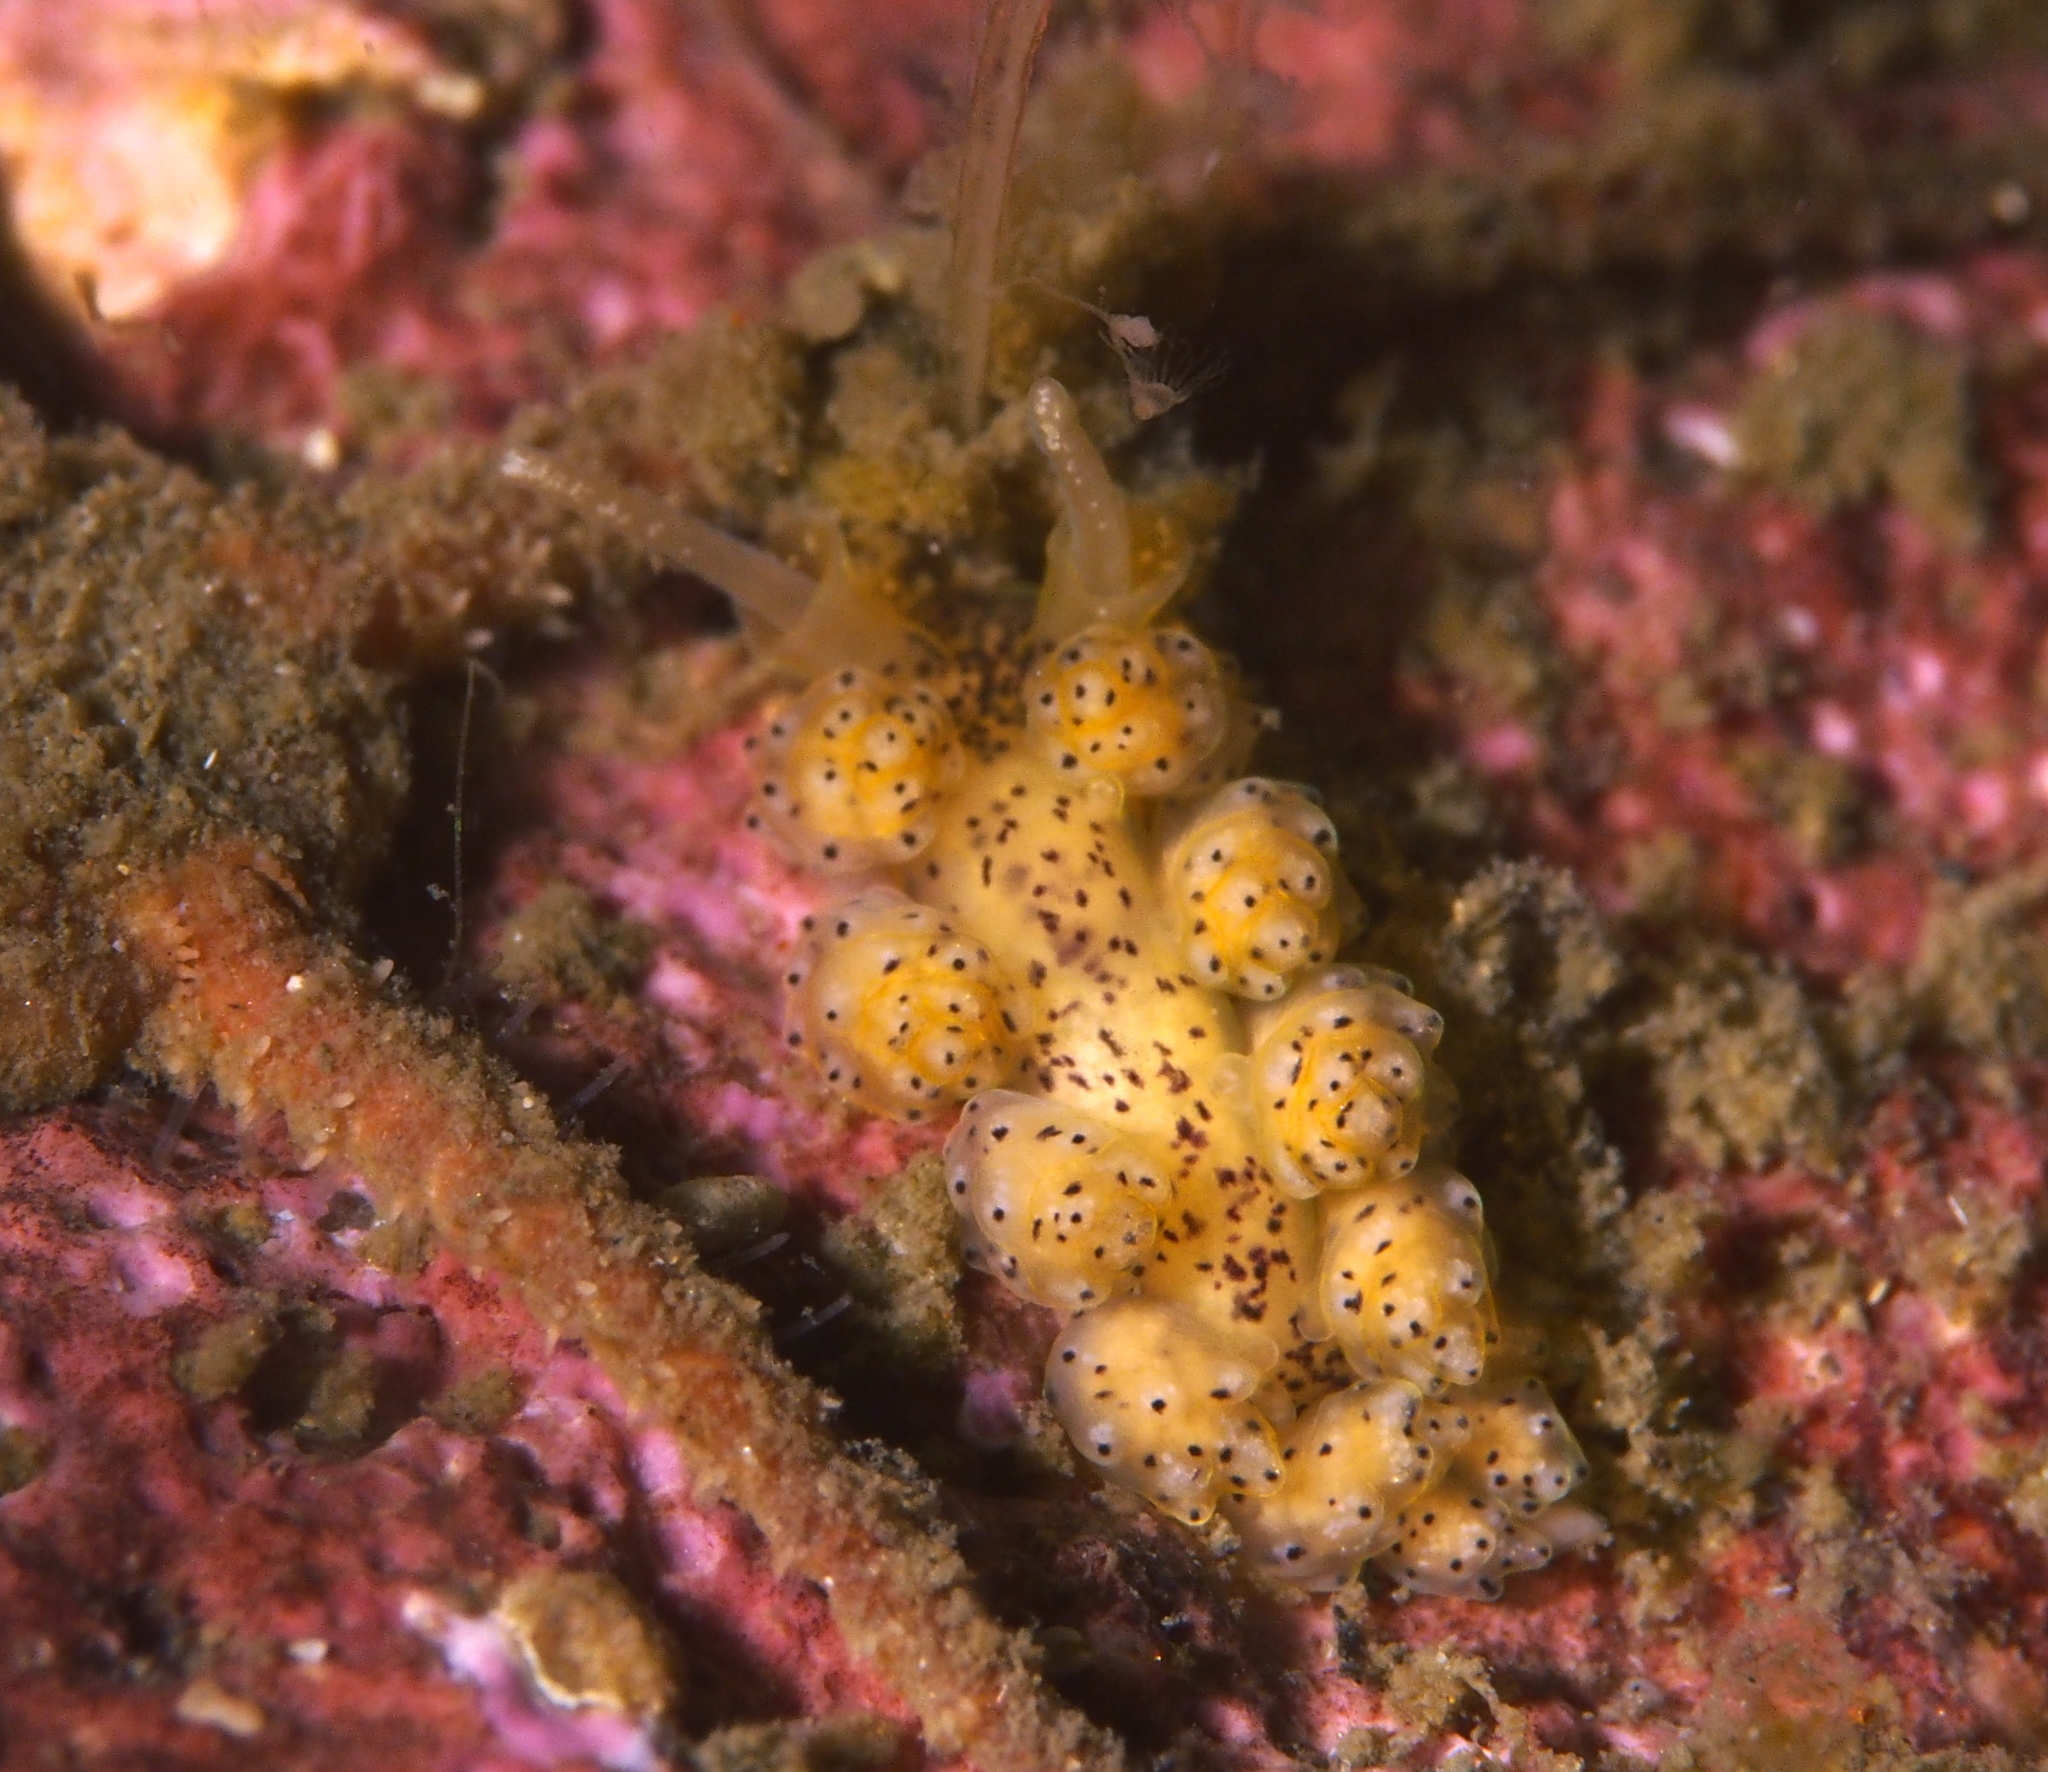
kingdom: Animalia
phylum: Mollusca
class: Gastropoda
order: Nudibranchia
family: Dotidae
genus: Doto
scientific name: Doto dunnei
